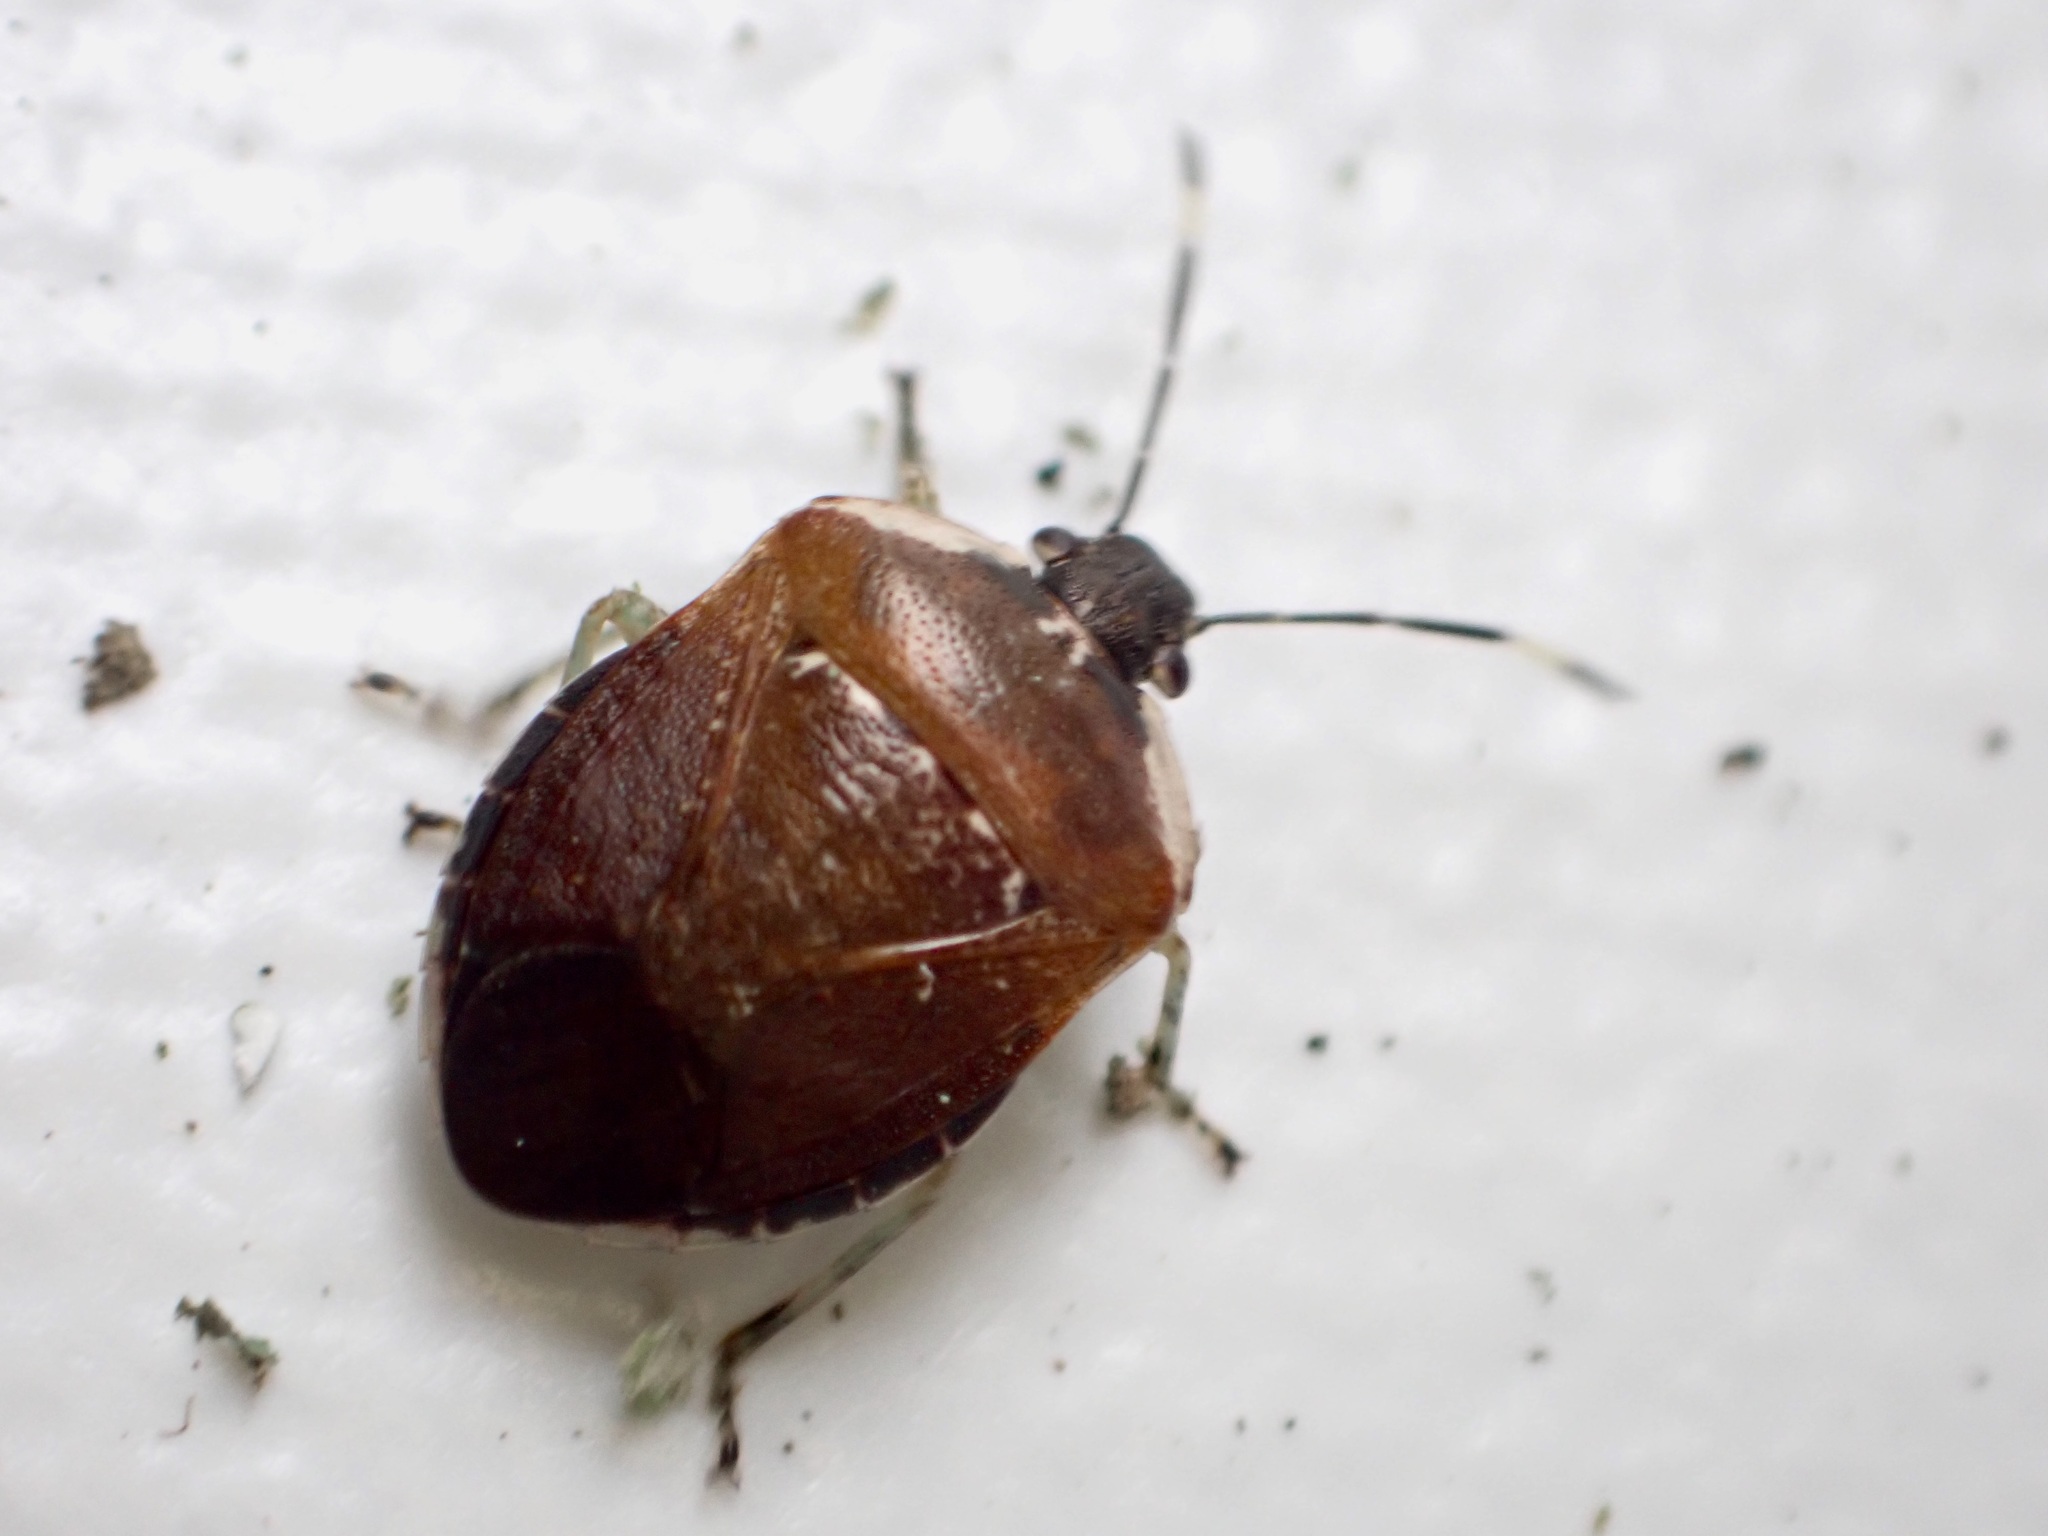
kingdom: Animalia
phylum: Arthropoda
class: Insecta
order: Hemiptera
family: Pentatomidae
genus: Monteithiella
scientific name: Monteithiella
